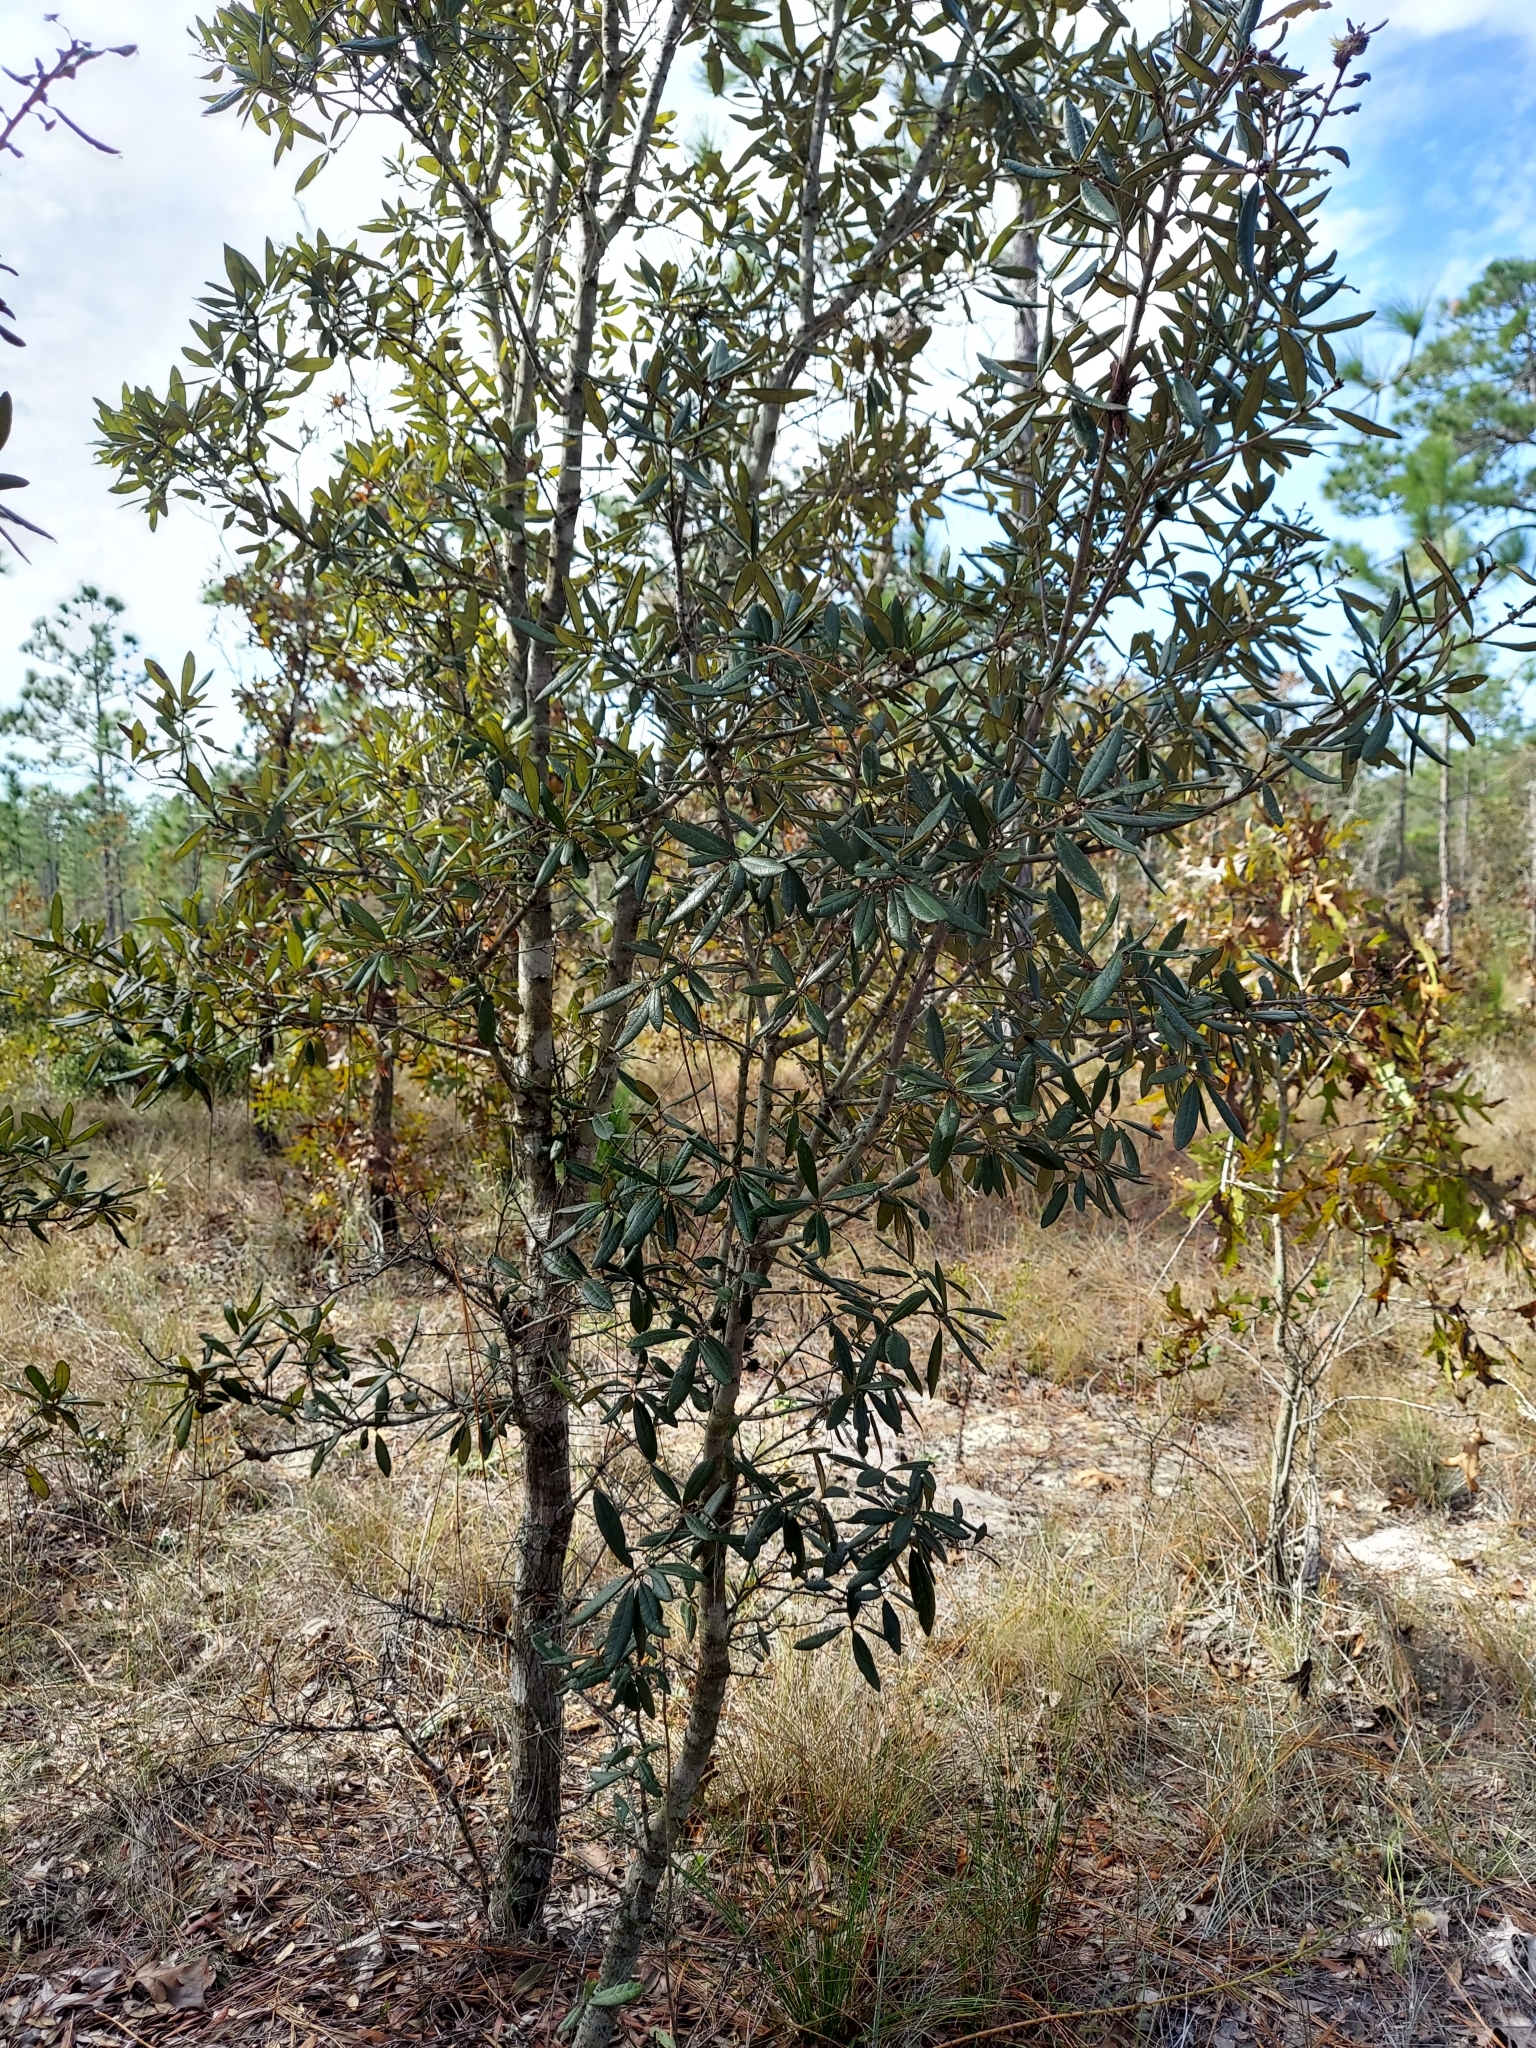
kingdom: Plantae
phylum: Tracheophyta
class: Magnoliopsida
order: Fagales
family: Fagaceae
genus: Quercus
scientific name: Quercus geminata
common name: Sand live oak
